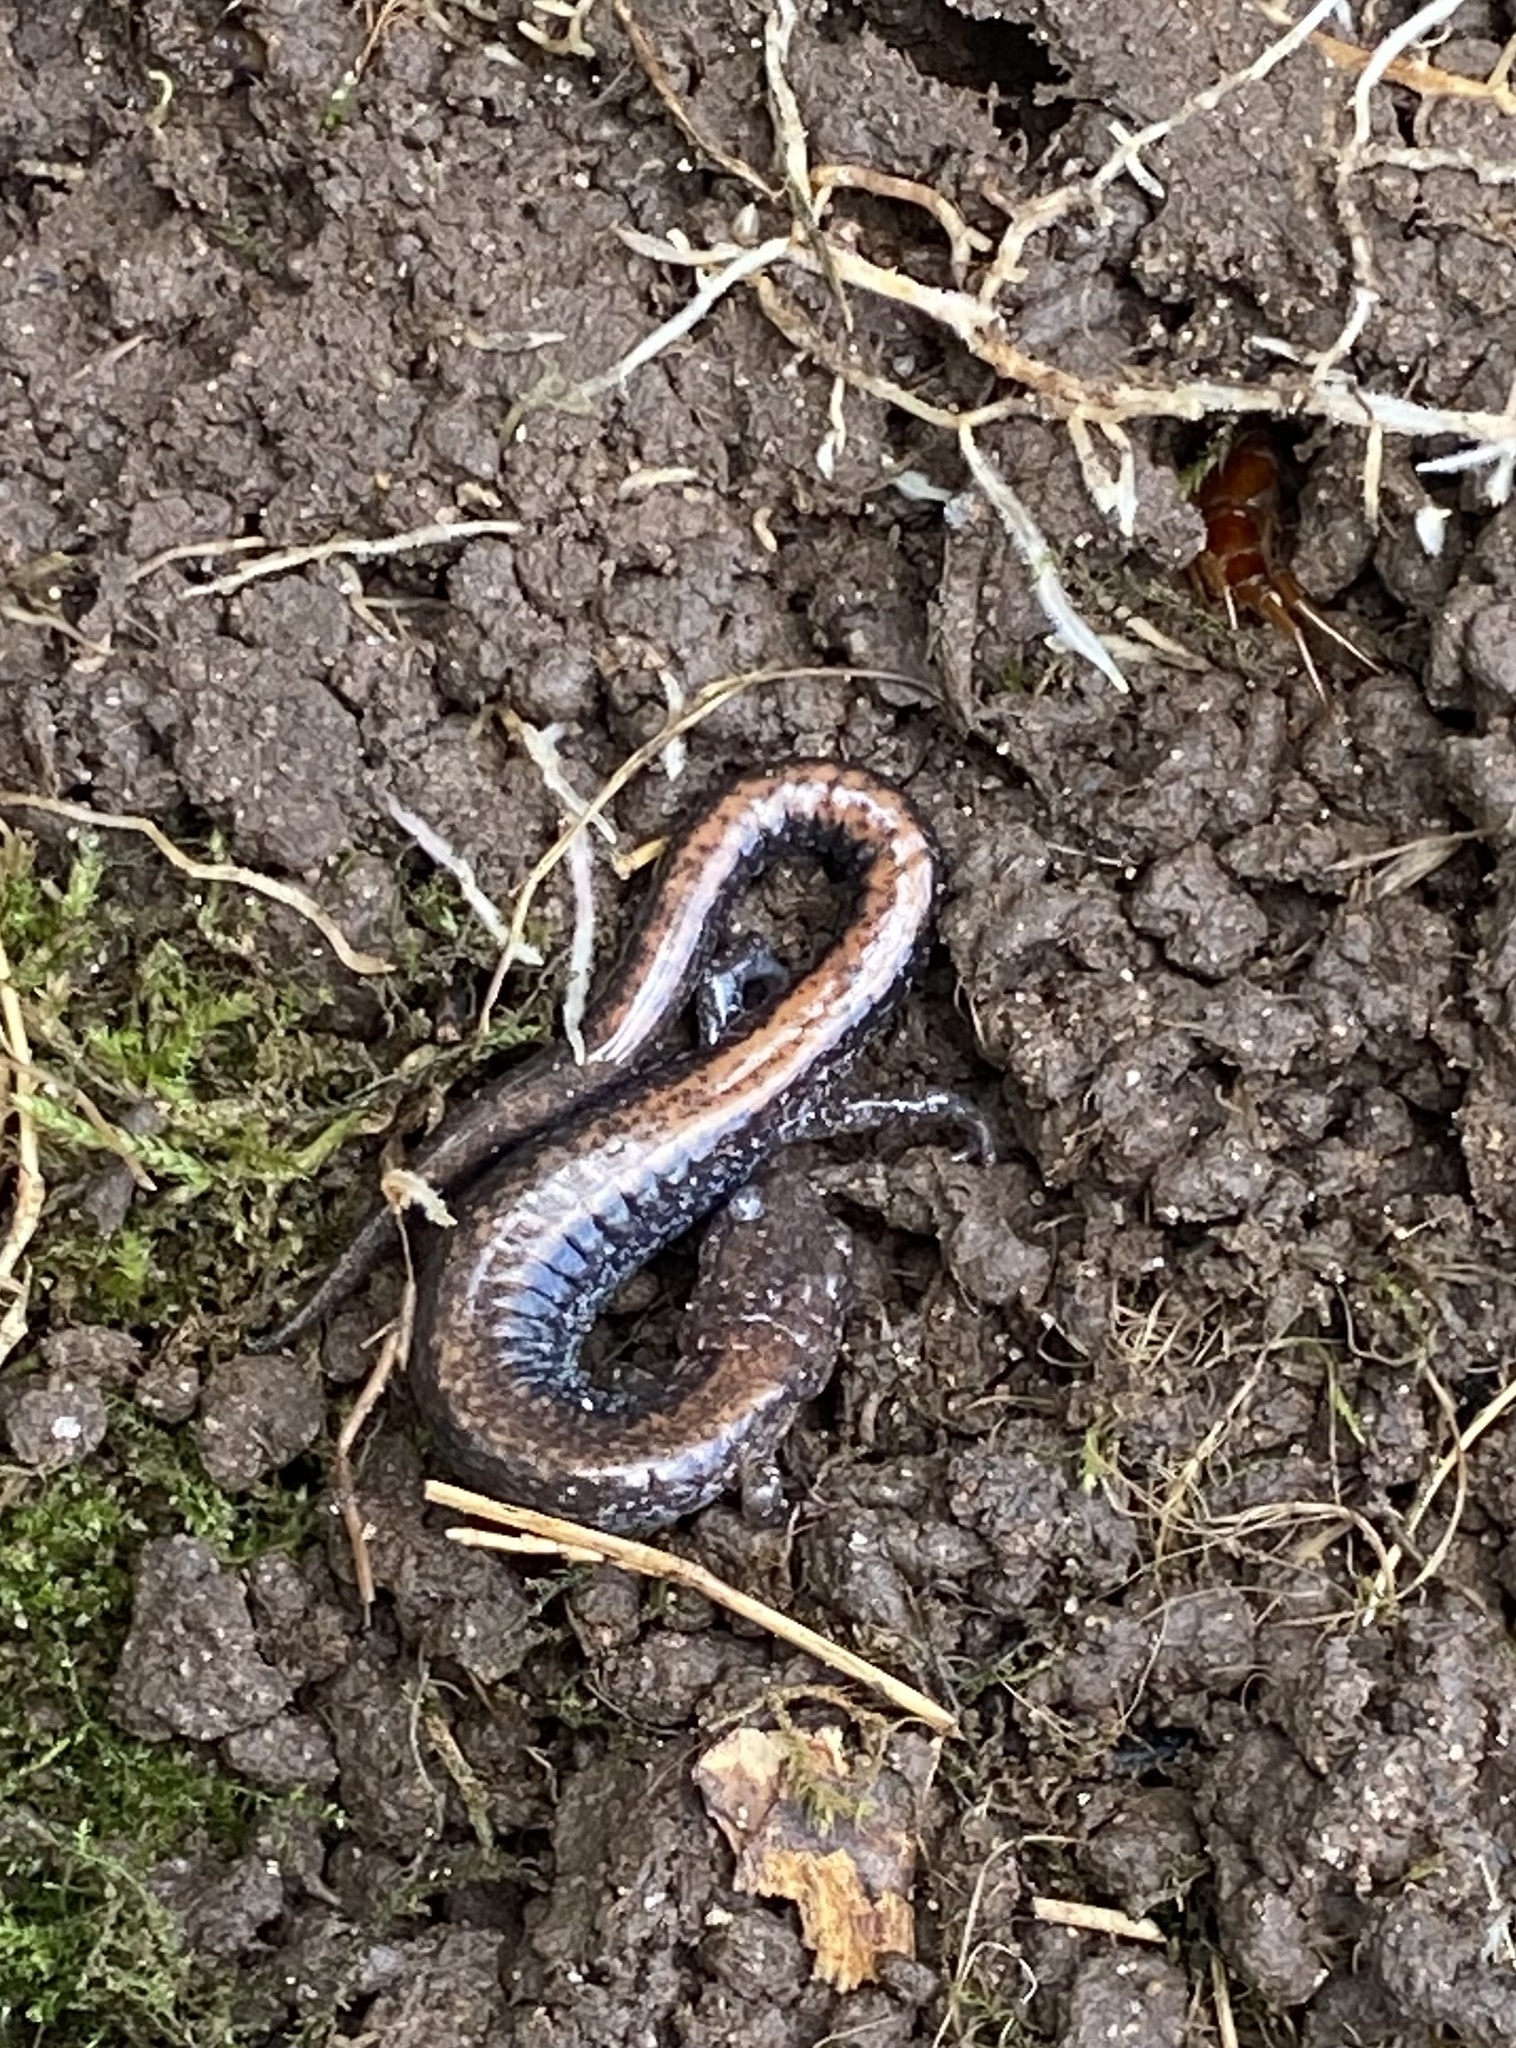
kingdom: Animalia
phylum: Chordata
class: Amphibia
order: Caudata
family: Plethodontidae
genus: Plethodon
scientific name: Plethodon cinereus
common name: Redback salamander
